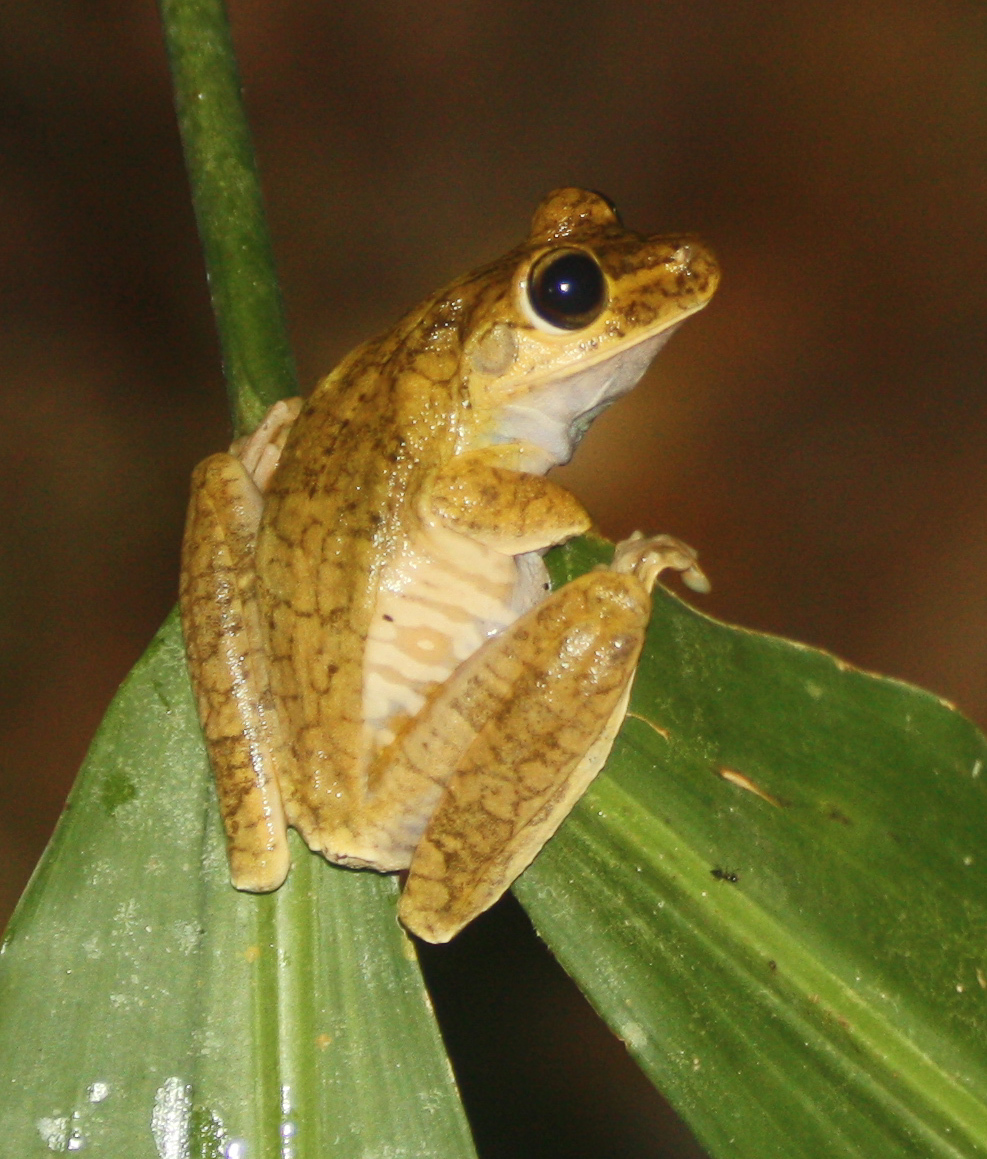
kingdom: Animalia
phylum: Chordata
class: Amphibia
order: Anura
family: Hylidae
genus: Boana
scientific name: Boana rosenbergi
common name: Rosenberg´s gladiator treefrog
